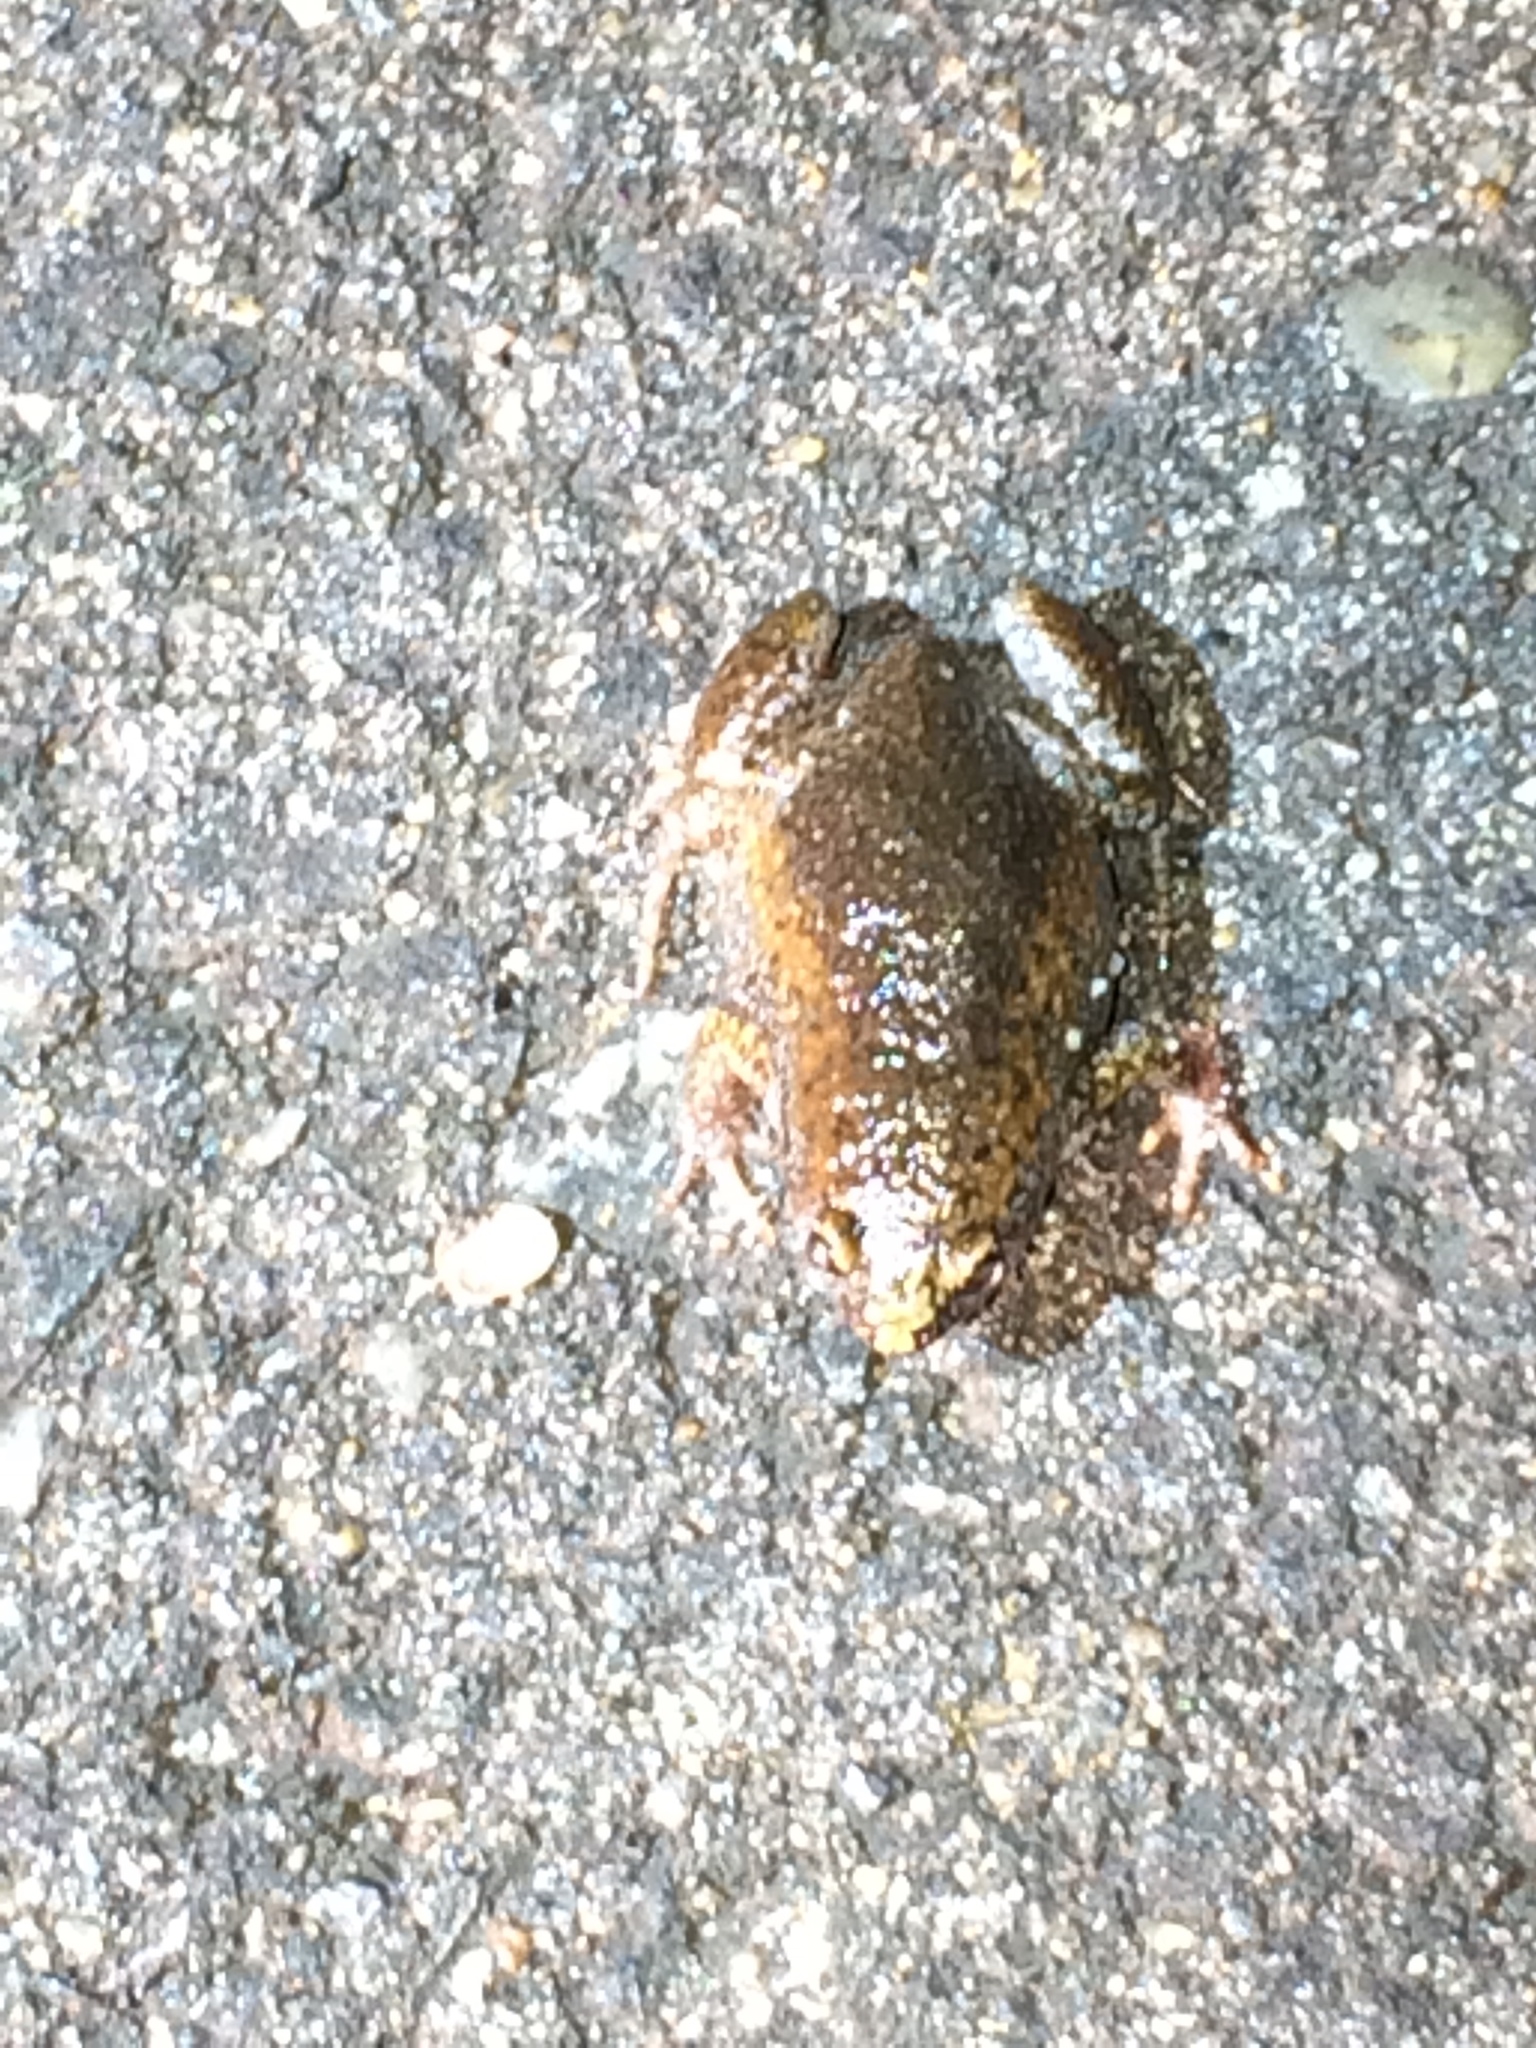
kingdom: Animalia
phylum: Chordata
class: Amphibia
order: Anura
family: Microhylidae
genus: Gastrophryne
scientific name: Gastrophryne carolinensis
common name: Eastern narrowmouth toad
